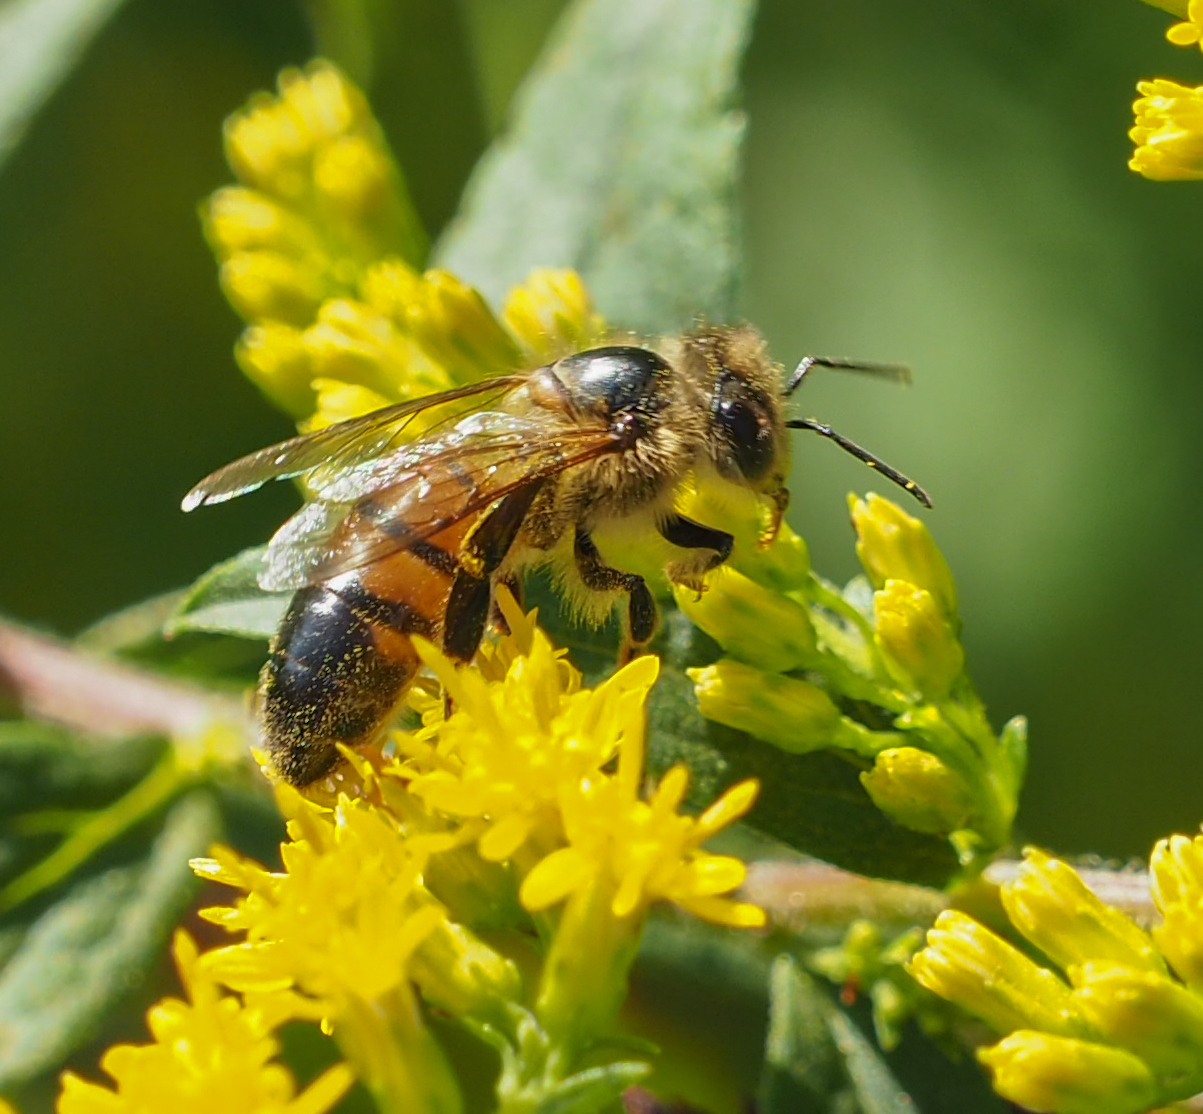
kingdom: Animalia
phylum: Arthropoda
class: Insecta
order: Hymenoptera
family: Apidae
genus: Apis
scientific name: Apis mellifera
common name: Honey bee
